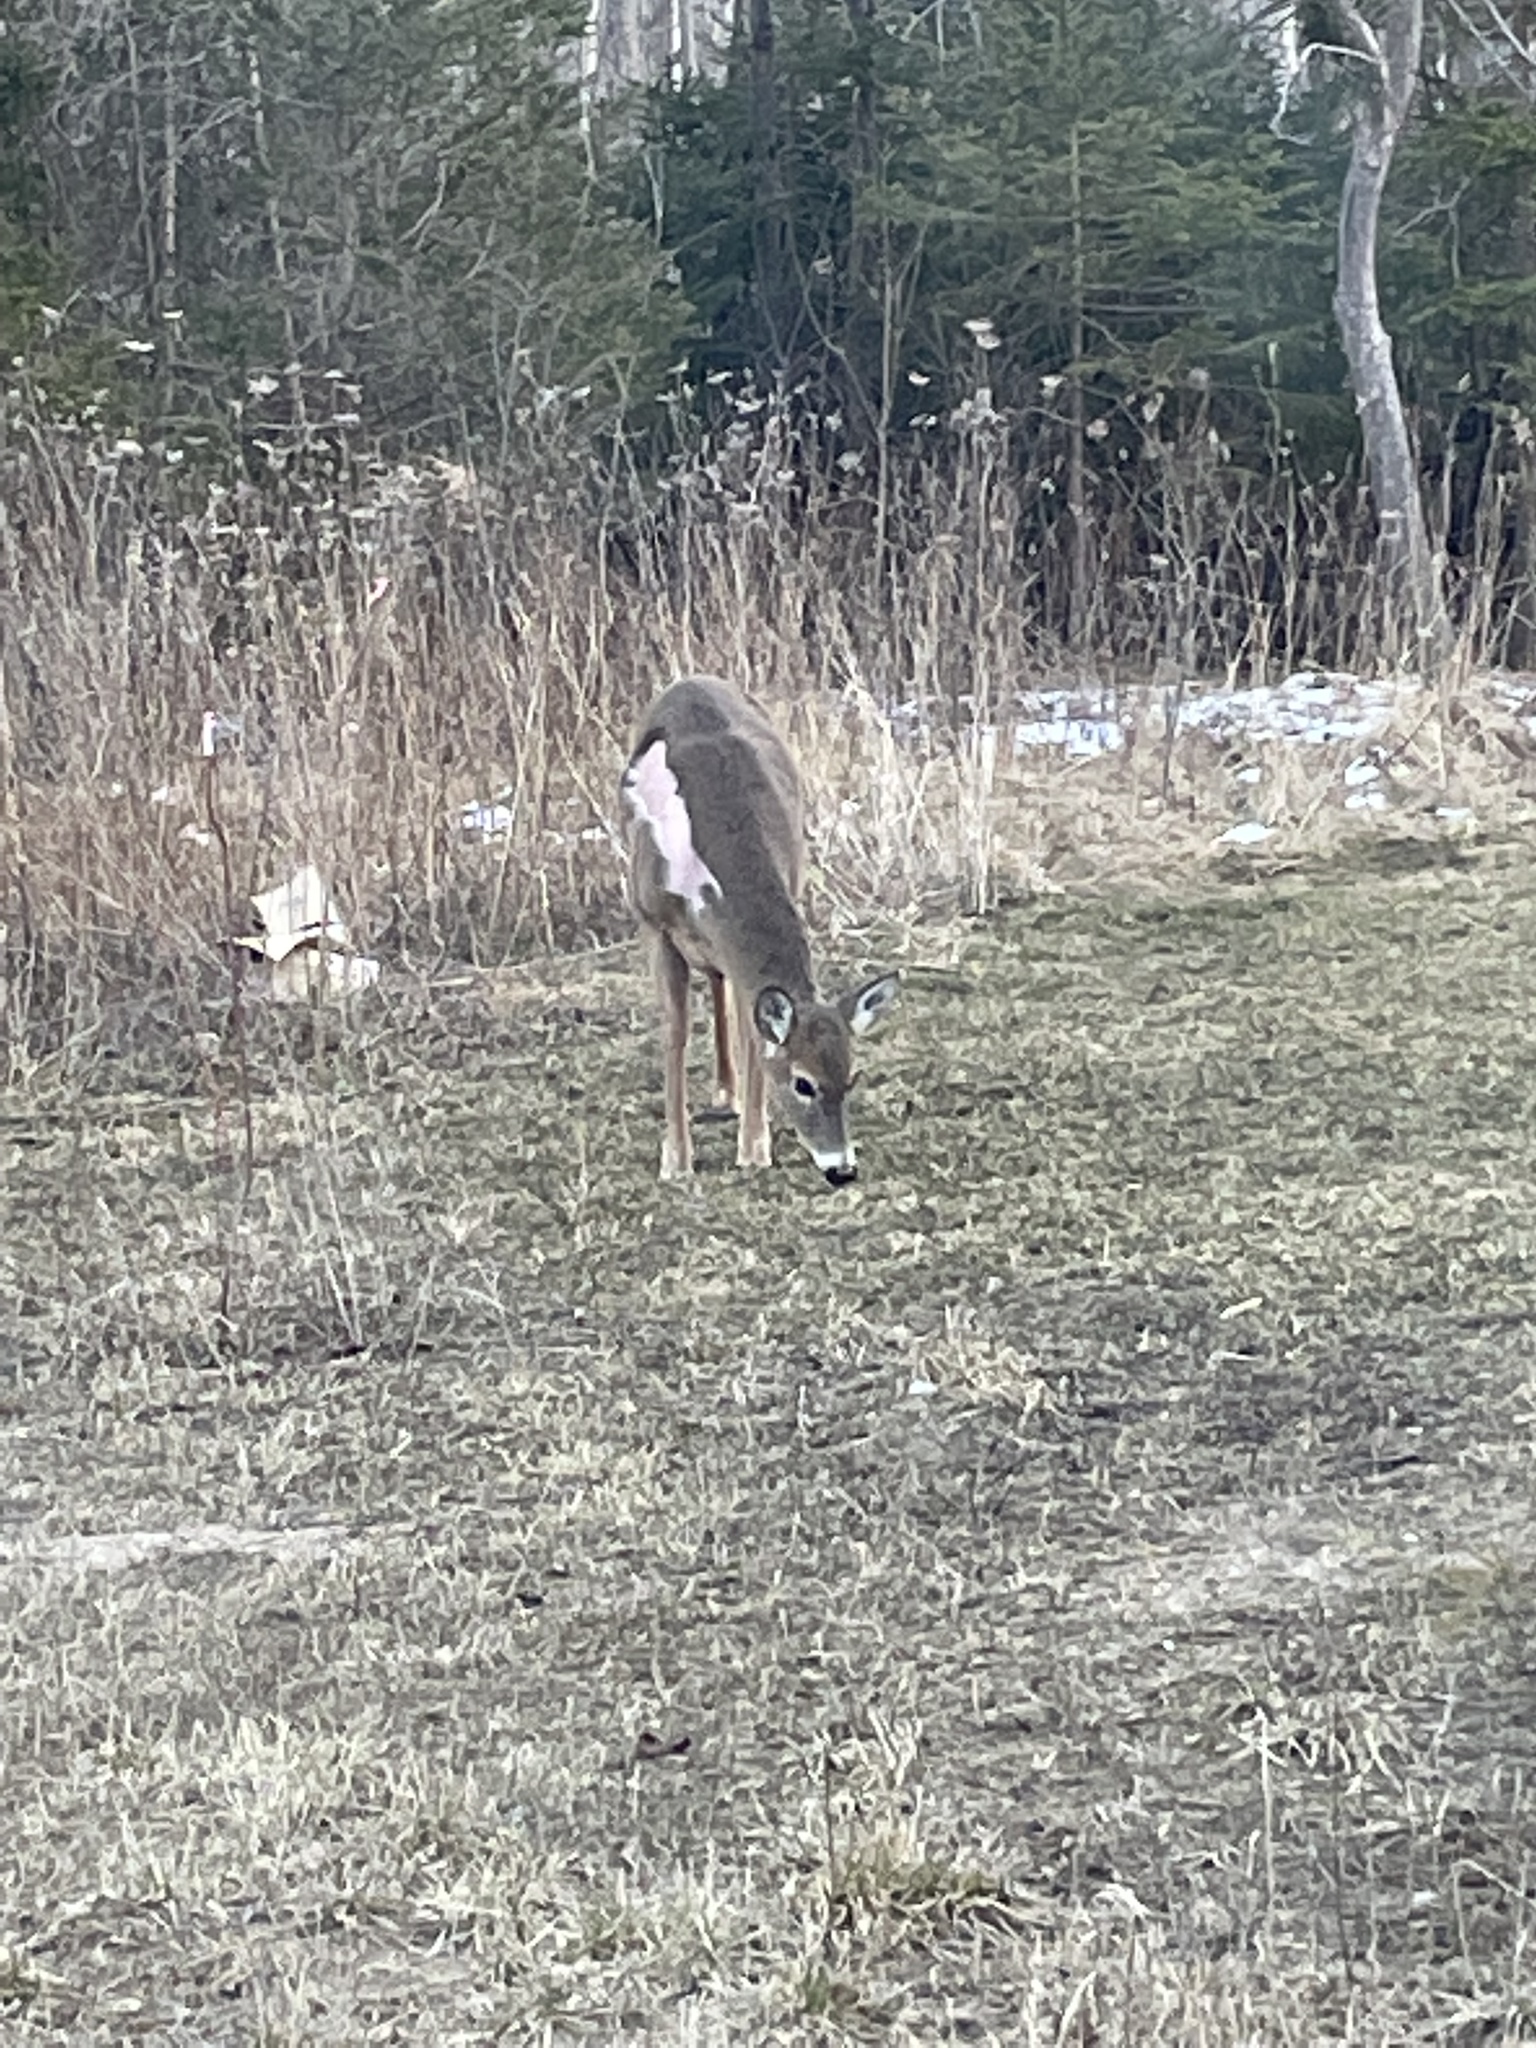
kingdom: Animalia
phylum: Chordata
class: Mammalia
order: Artiodactyla
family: Cervidae
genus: Odocoileus
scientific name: Odocoileus virginianus
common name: White-tailed deer
